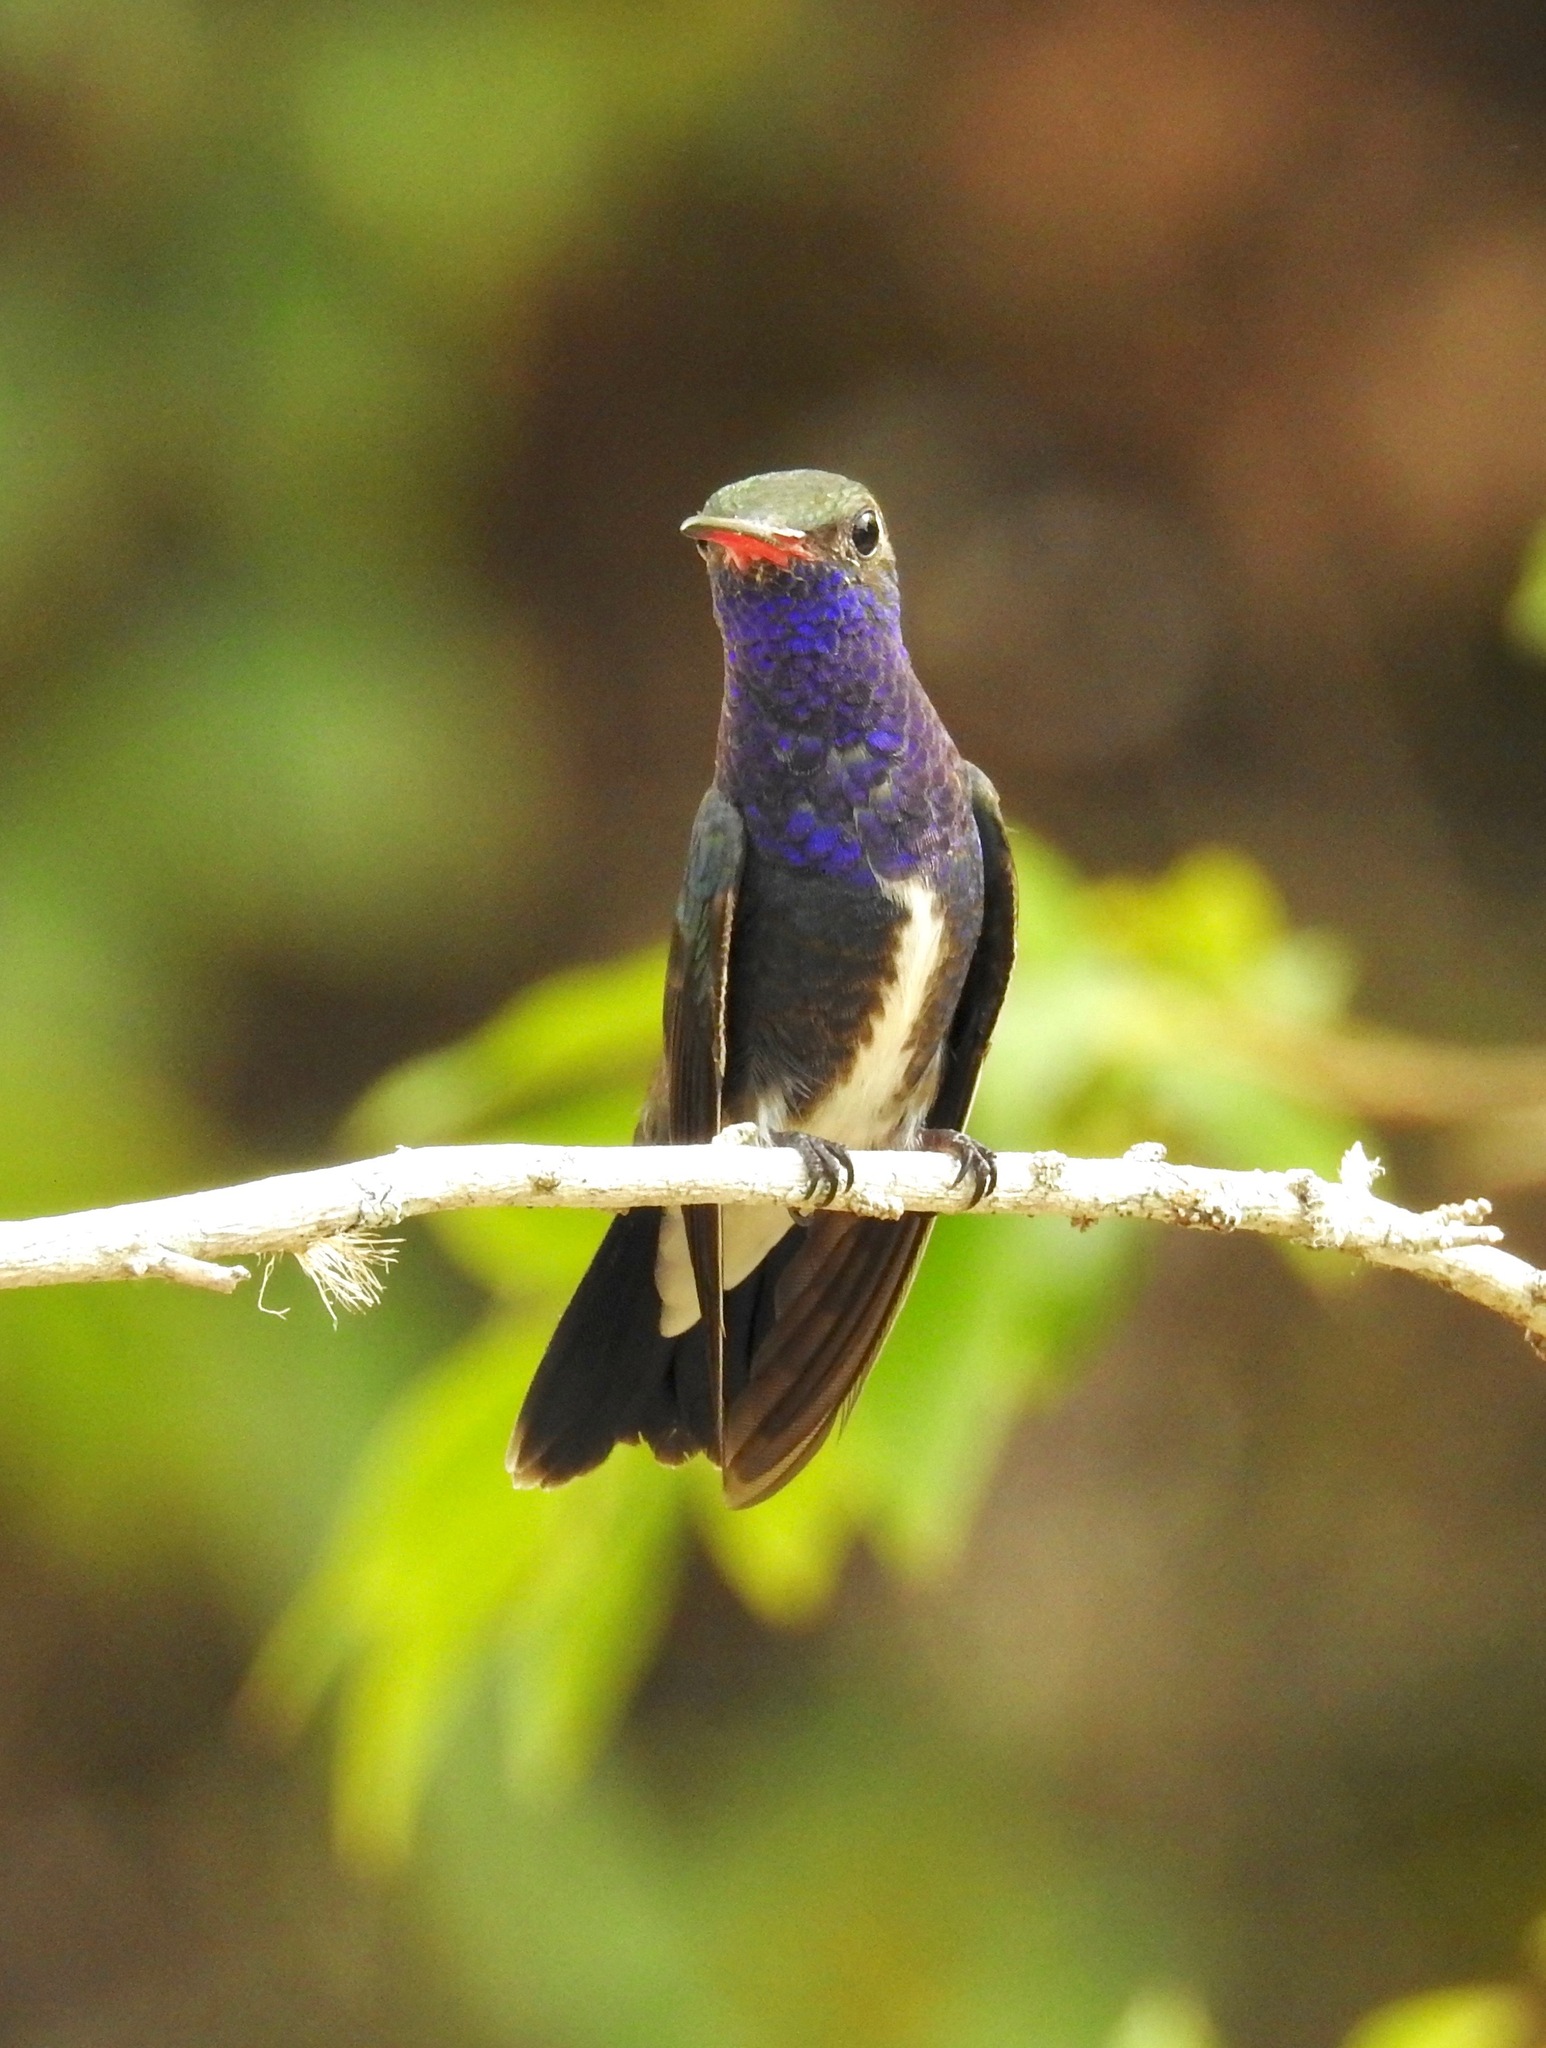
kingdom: Animalia
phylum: Chordata
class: Aves
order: Apodiformes
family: Trochilidae
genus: Chionomesa
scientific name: Chionomesa lactea
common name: Sapphire-spangled emerald
